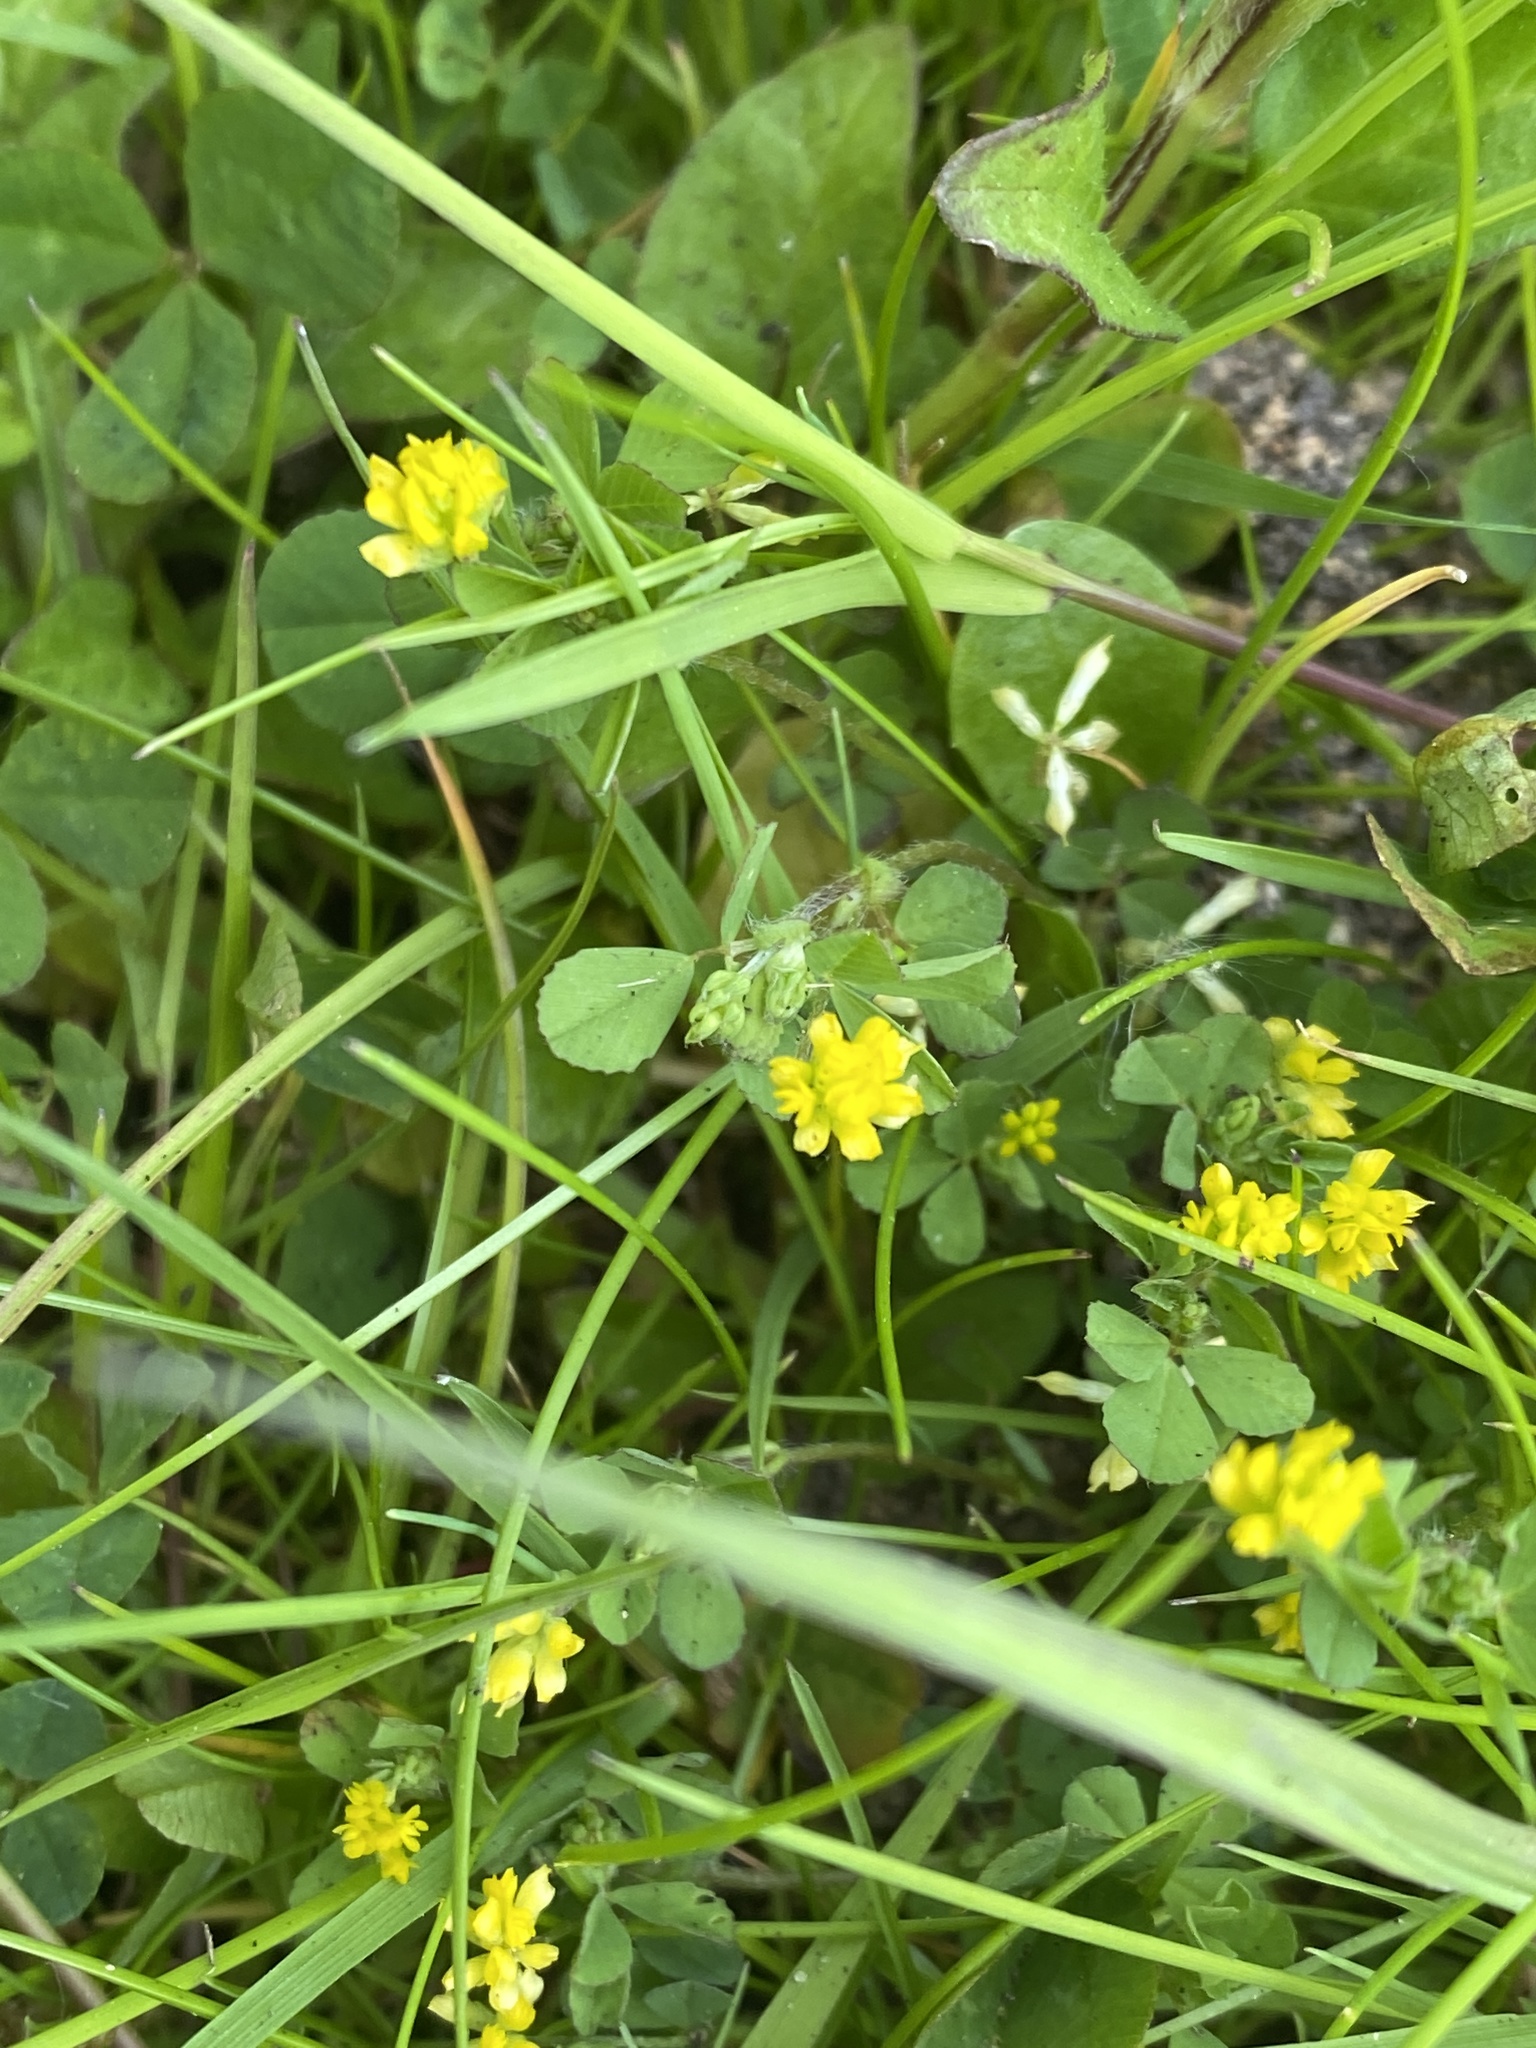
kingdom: Plantae
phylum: Tracheophyta
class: Magnoliopsida
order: Fabales
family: Fabaceae
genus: Trifolium
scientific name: Trifolium dubium
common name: Suckling clover
